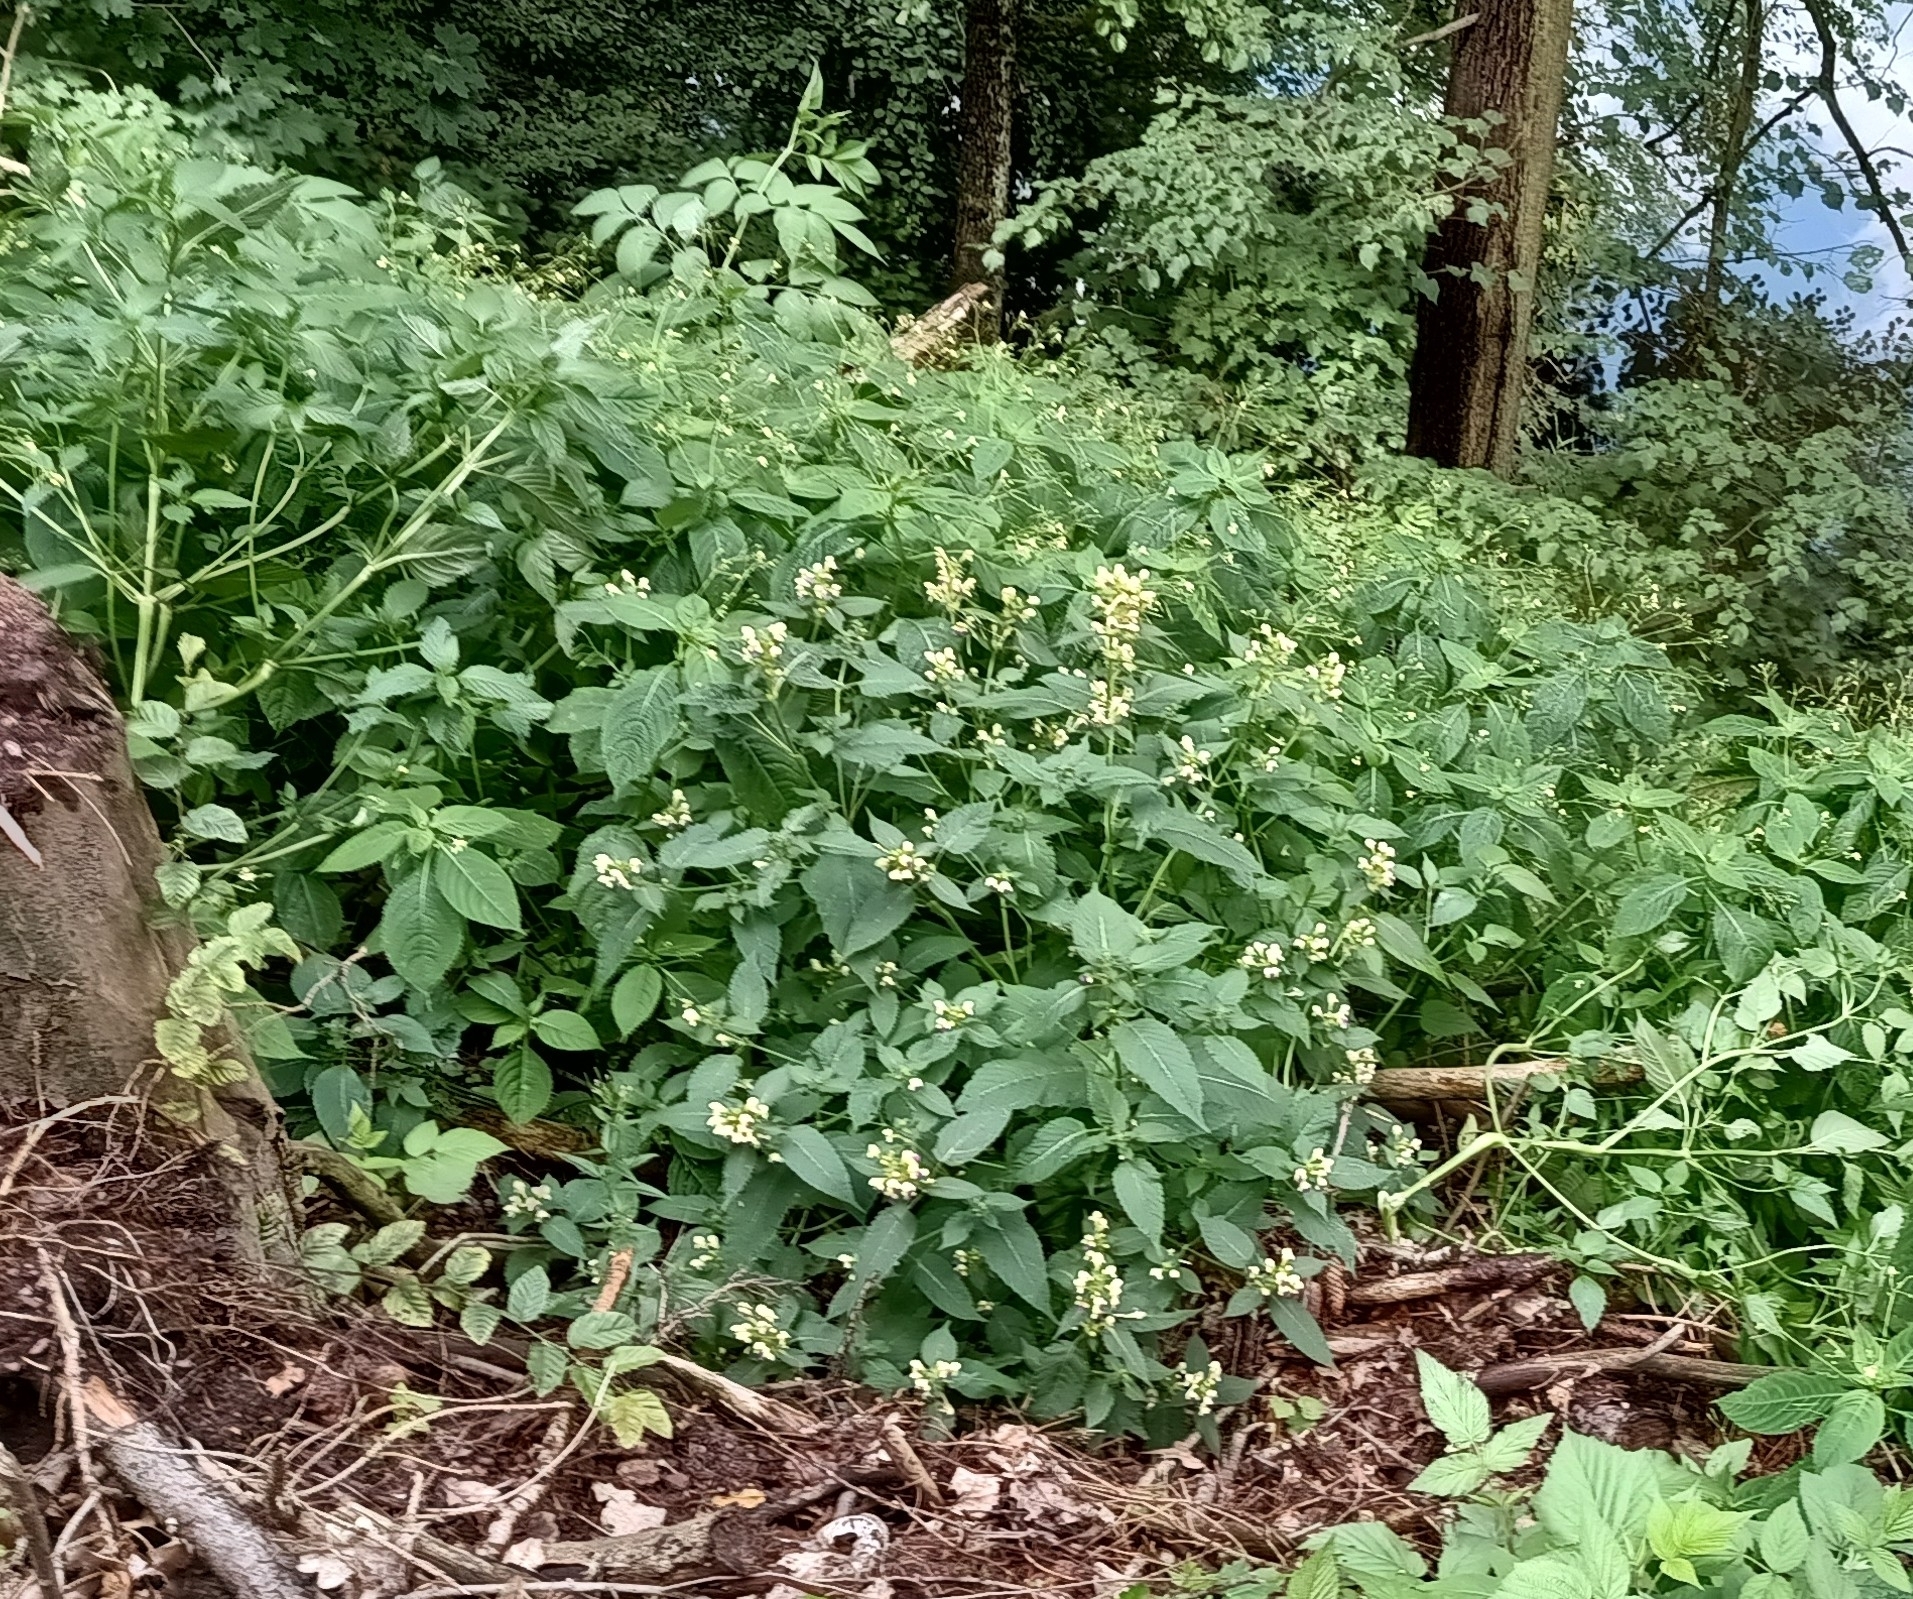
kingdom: Plantae
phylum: Tracheophyta
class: Magnoliopsida
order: Lamiales
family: Lamiaceae
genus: Galeopsis
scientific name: Galeopsis speciosa
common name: Large-flowered hemp-nettle
